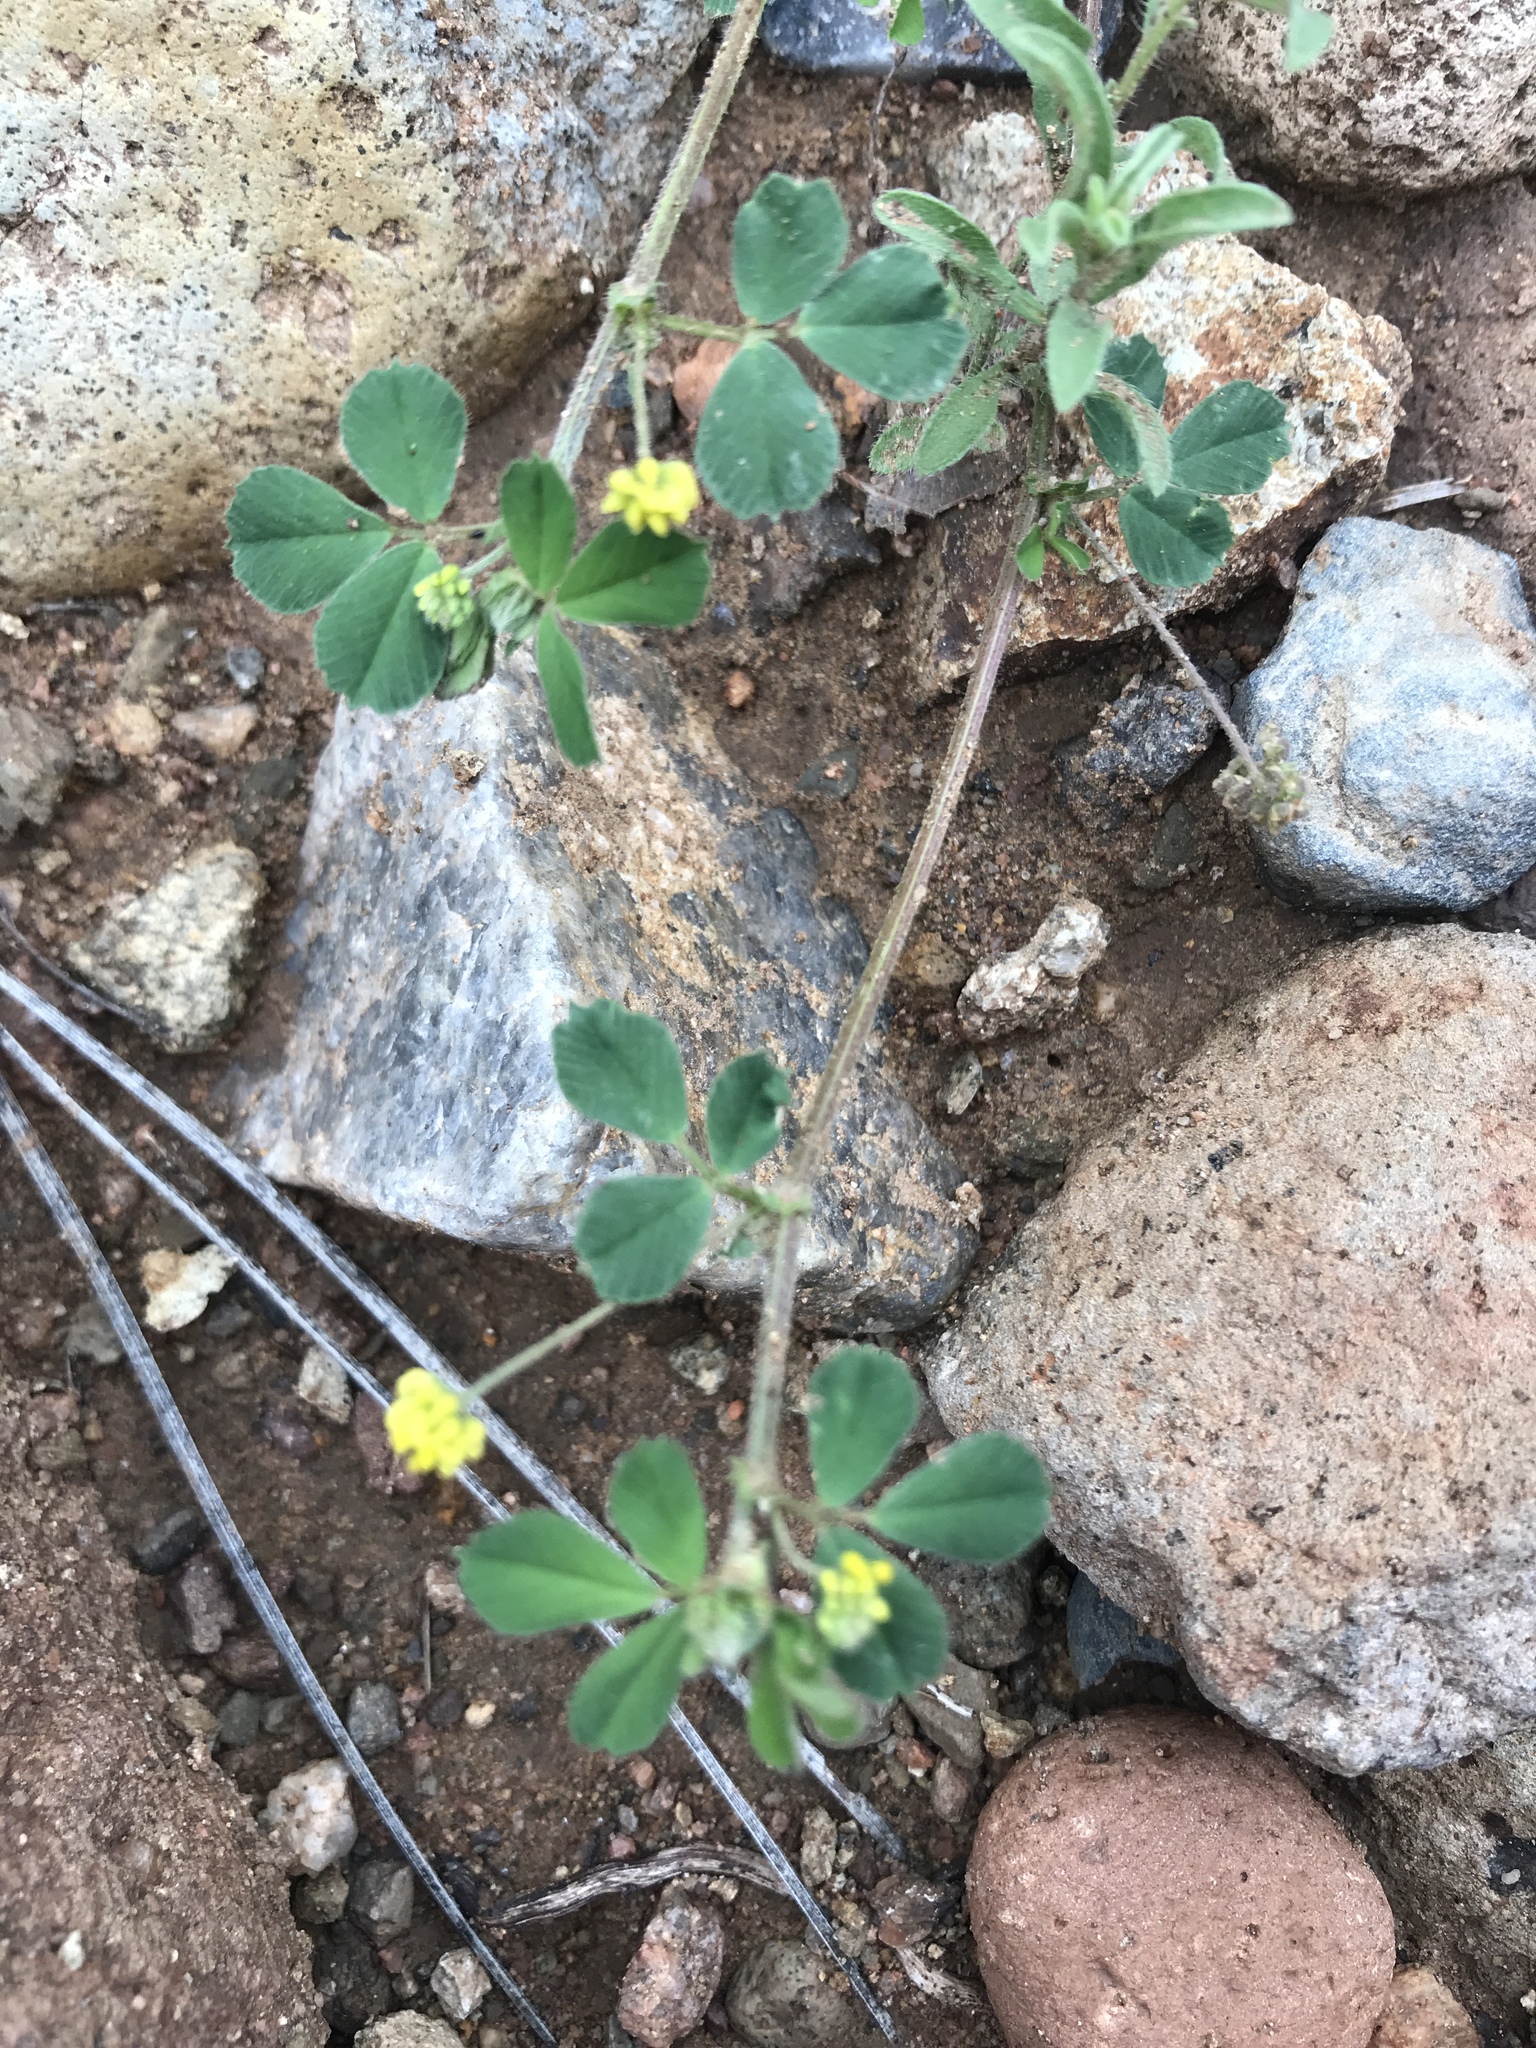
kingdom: Plantae
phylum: Tracheophyta
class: Magnoliopsida
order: Fabales
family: Fabaceae
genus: Medicago
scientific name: Medicago lupulina
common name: Black medick
